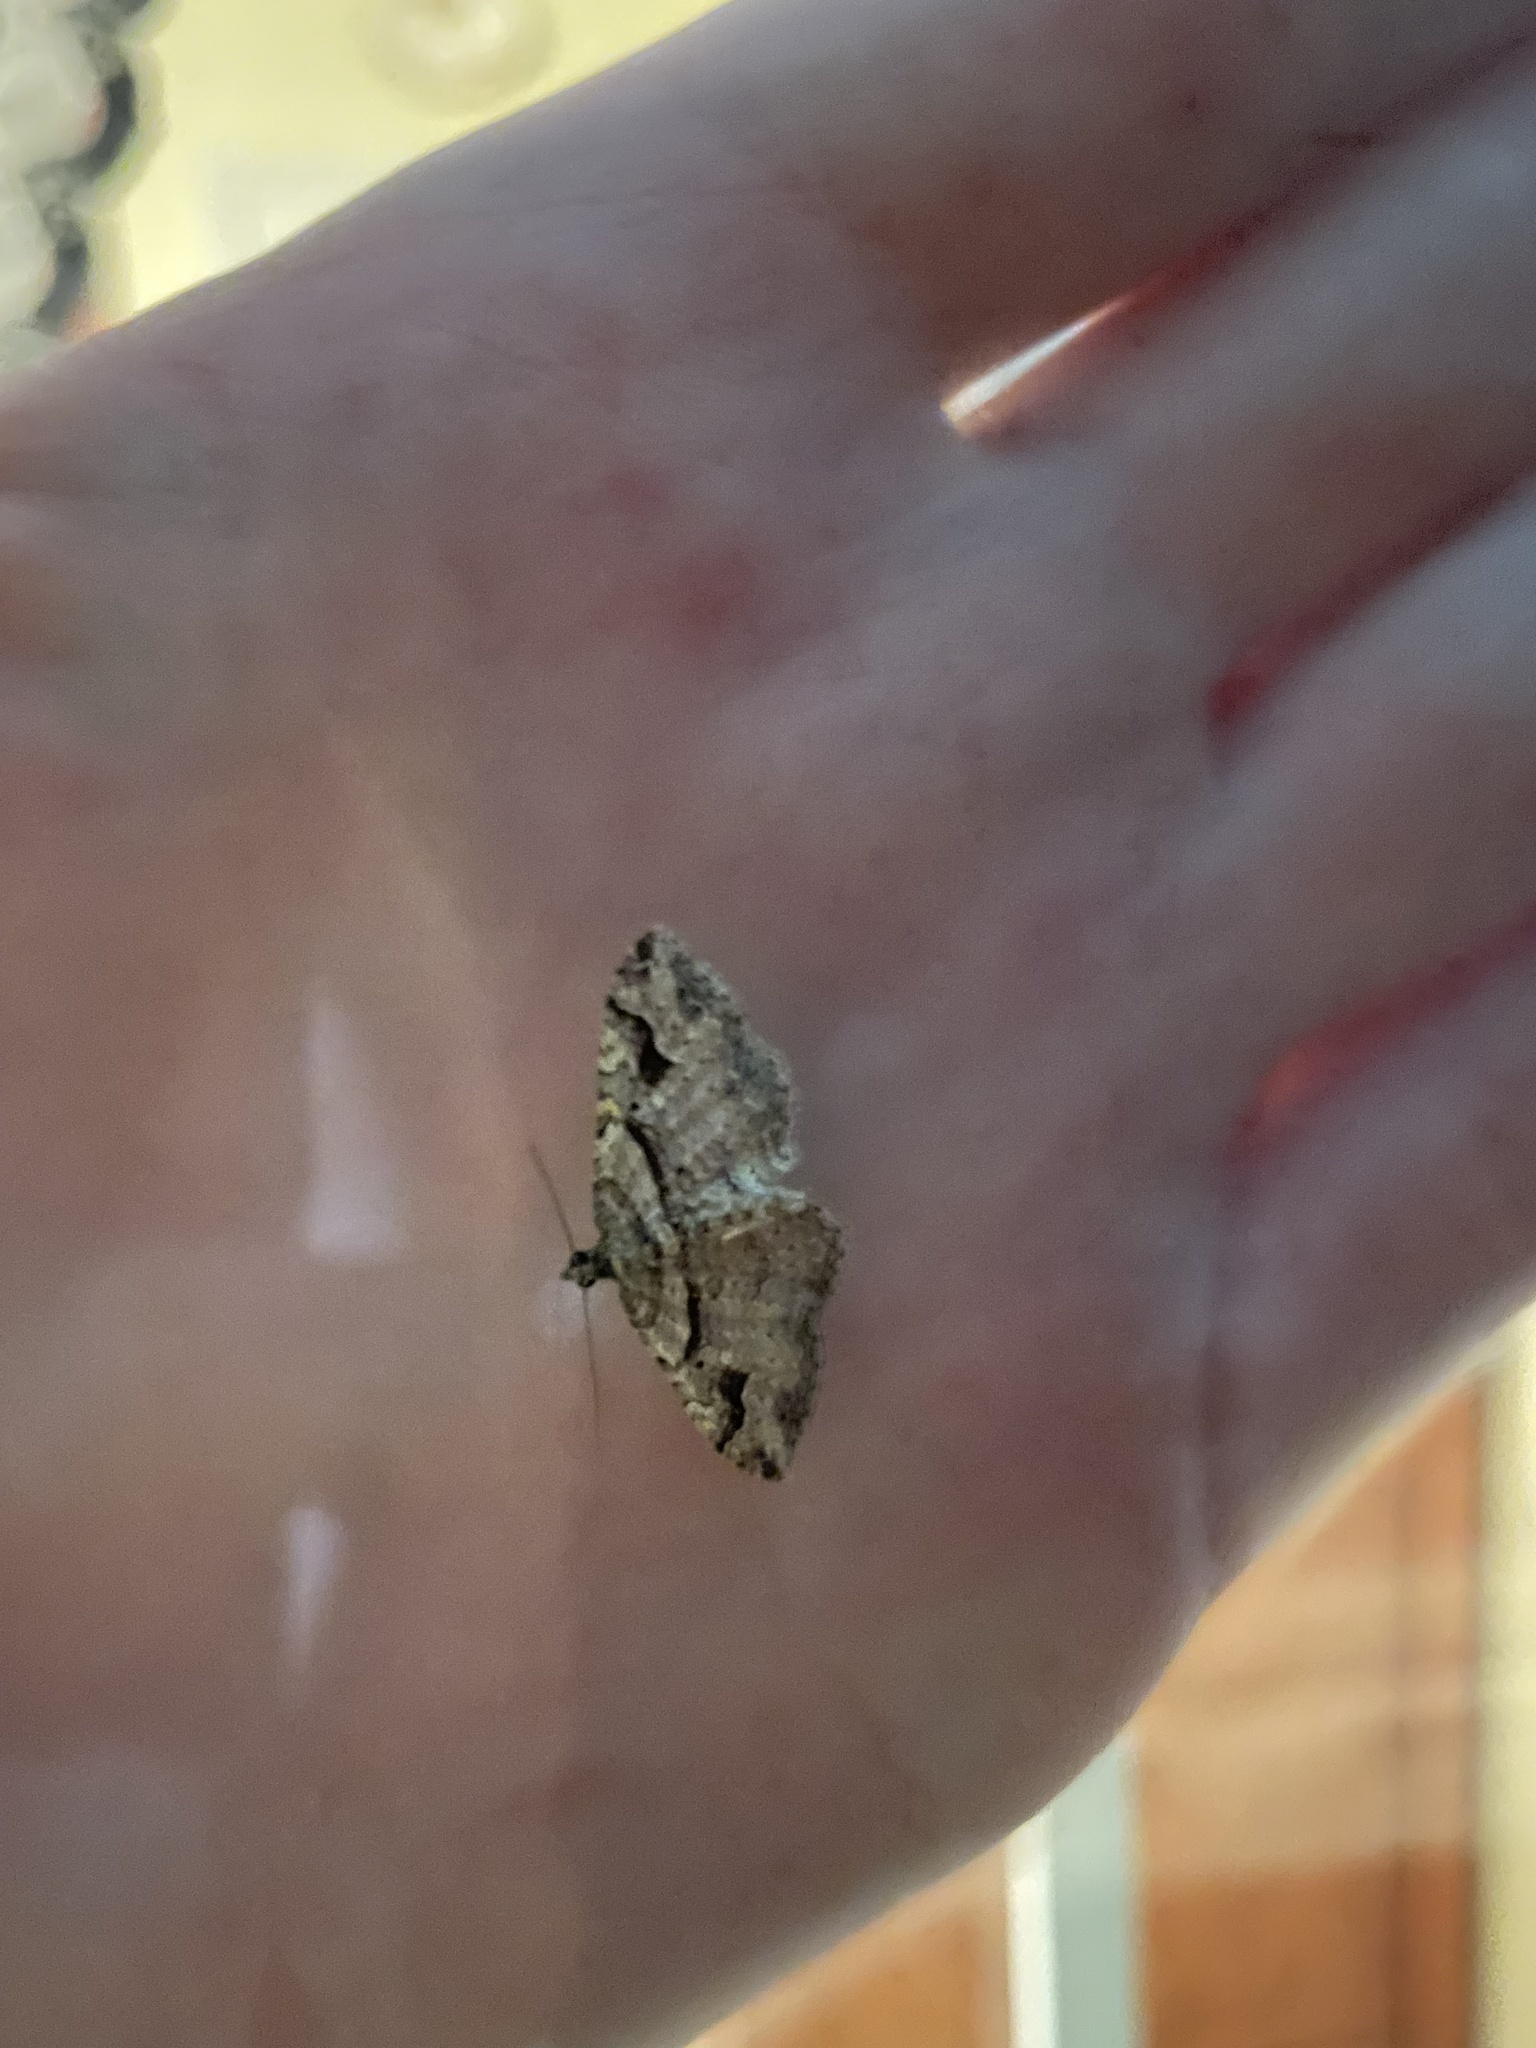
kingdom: Animalia
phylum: Arthropoda
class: Insecta
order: Lepidoptera
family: Geometridae
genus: Costaconvexa
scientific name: Costaconvexa centrostrigaria
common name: Bent-line carpet
